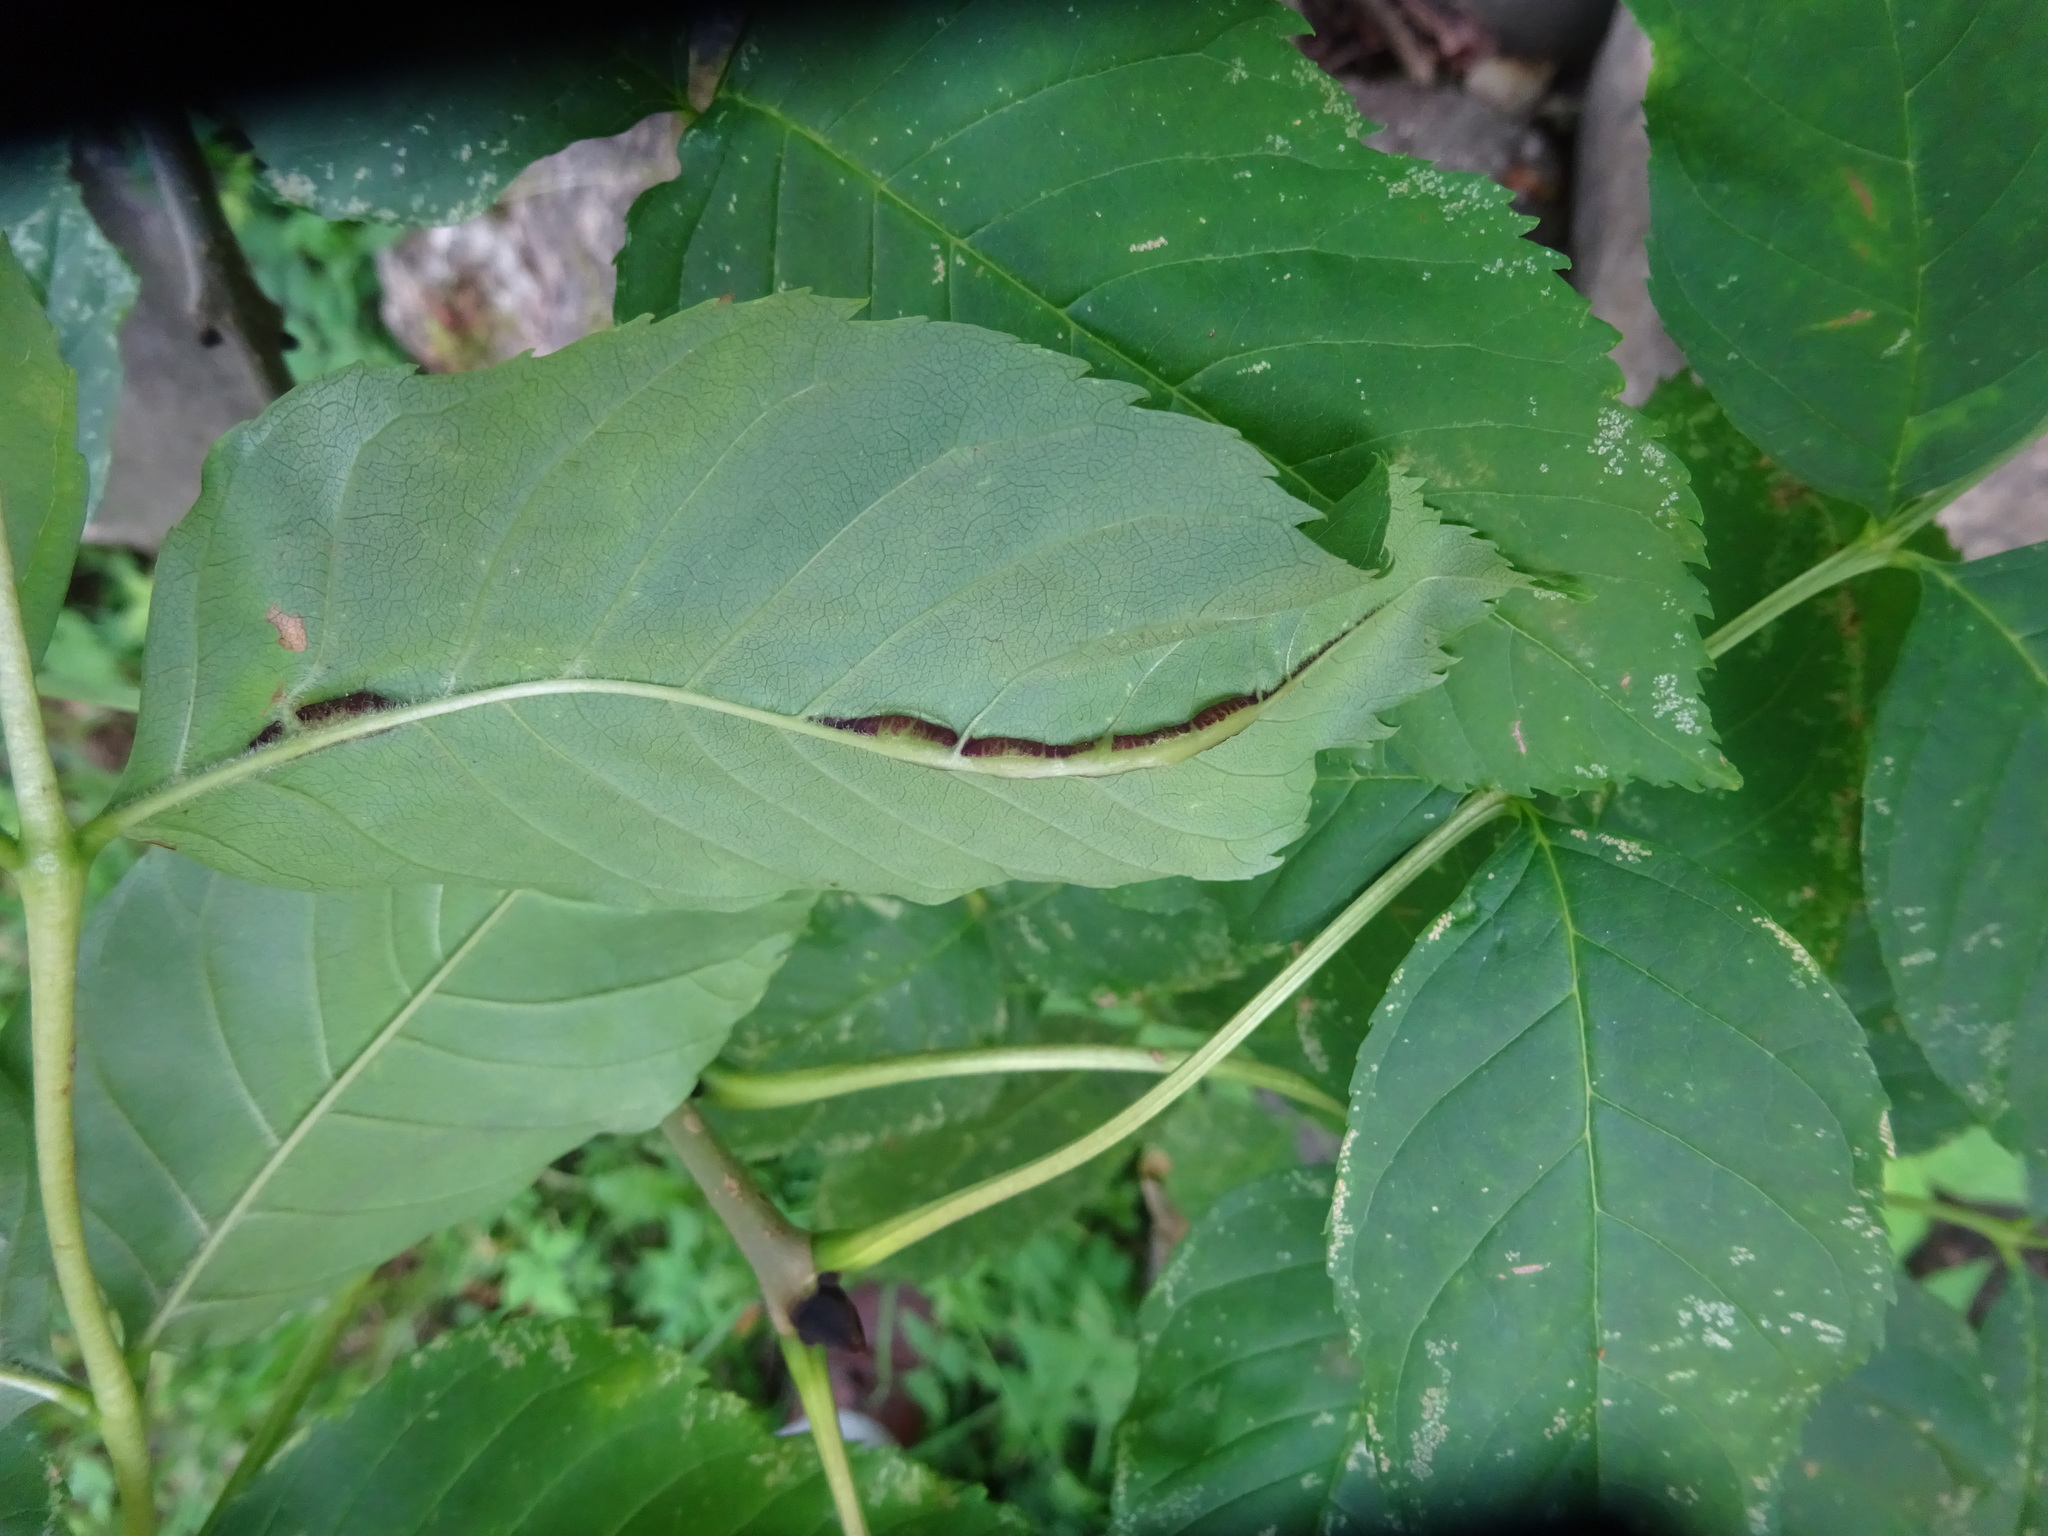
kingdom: Animalia
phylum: Arthropoda
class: Insecta
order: Diptera
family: Cecidomyiidae
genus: Dasineura
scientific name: Dasineura fraxini
